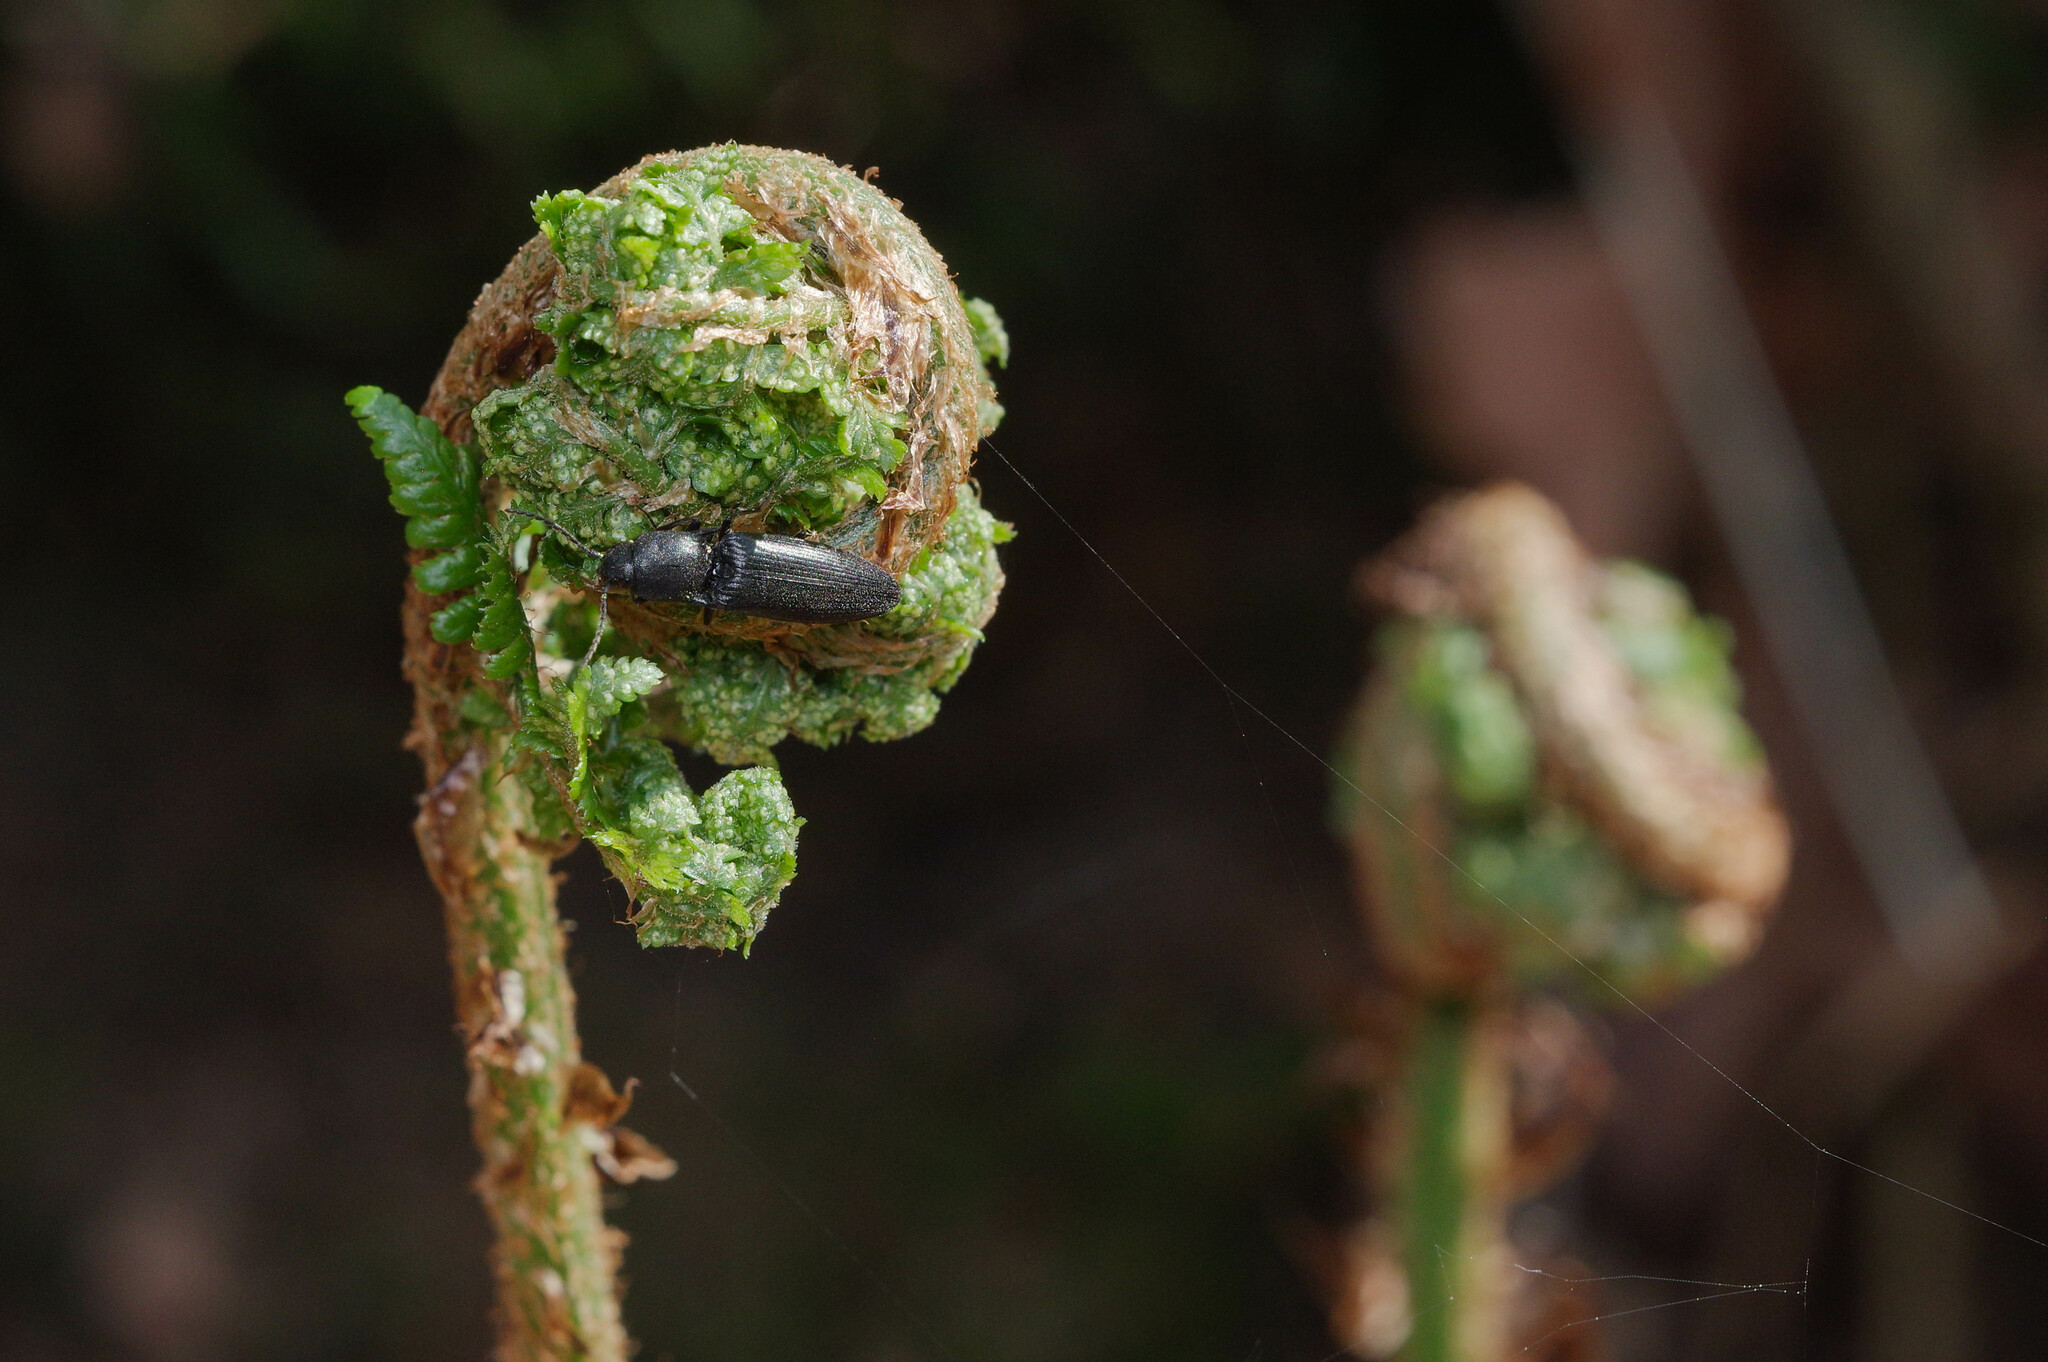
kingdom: Animalia
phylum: Arthropoda
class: Insecta
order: Coleoptera
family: Elateridae
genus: Ectinus
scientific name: Ectinus aterrimus
